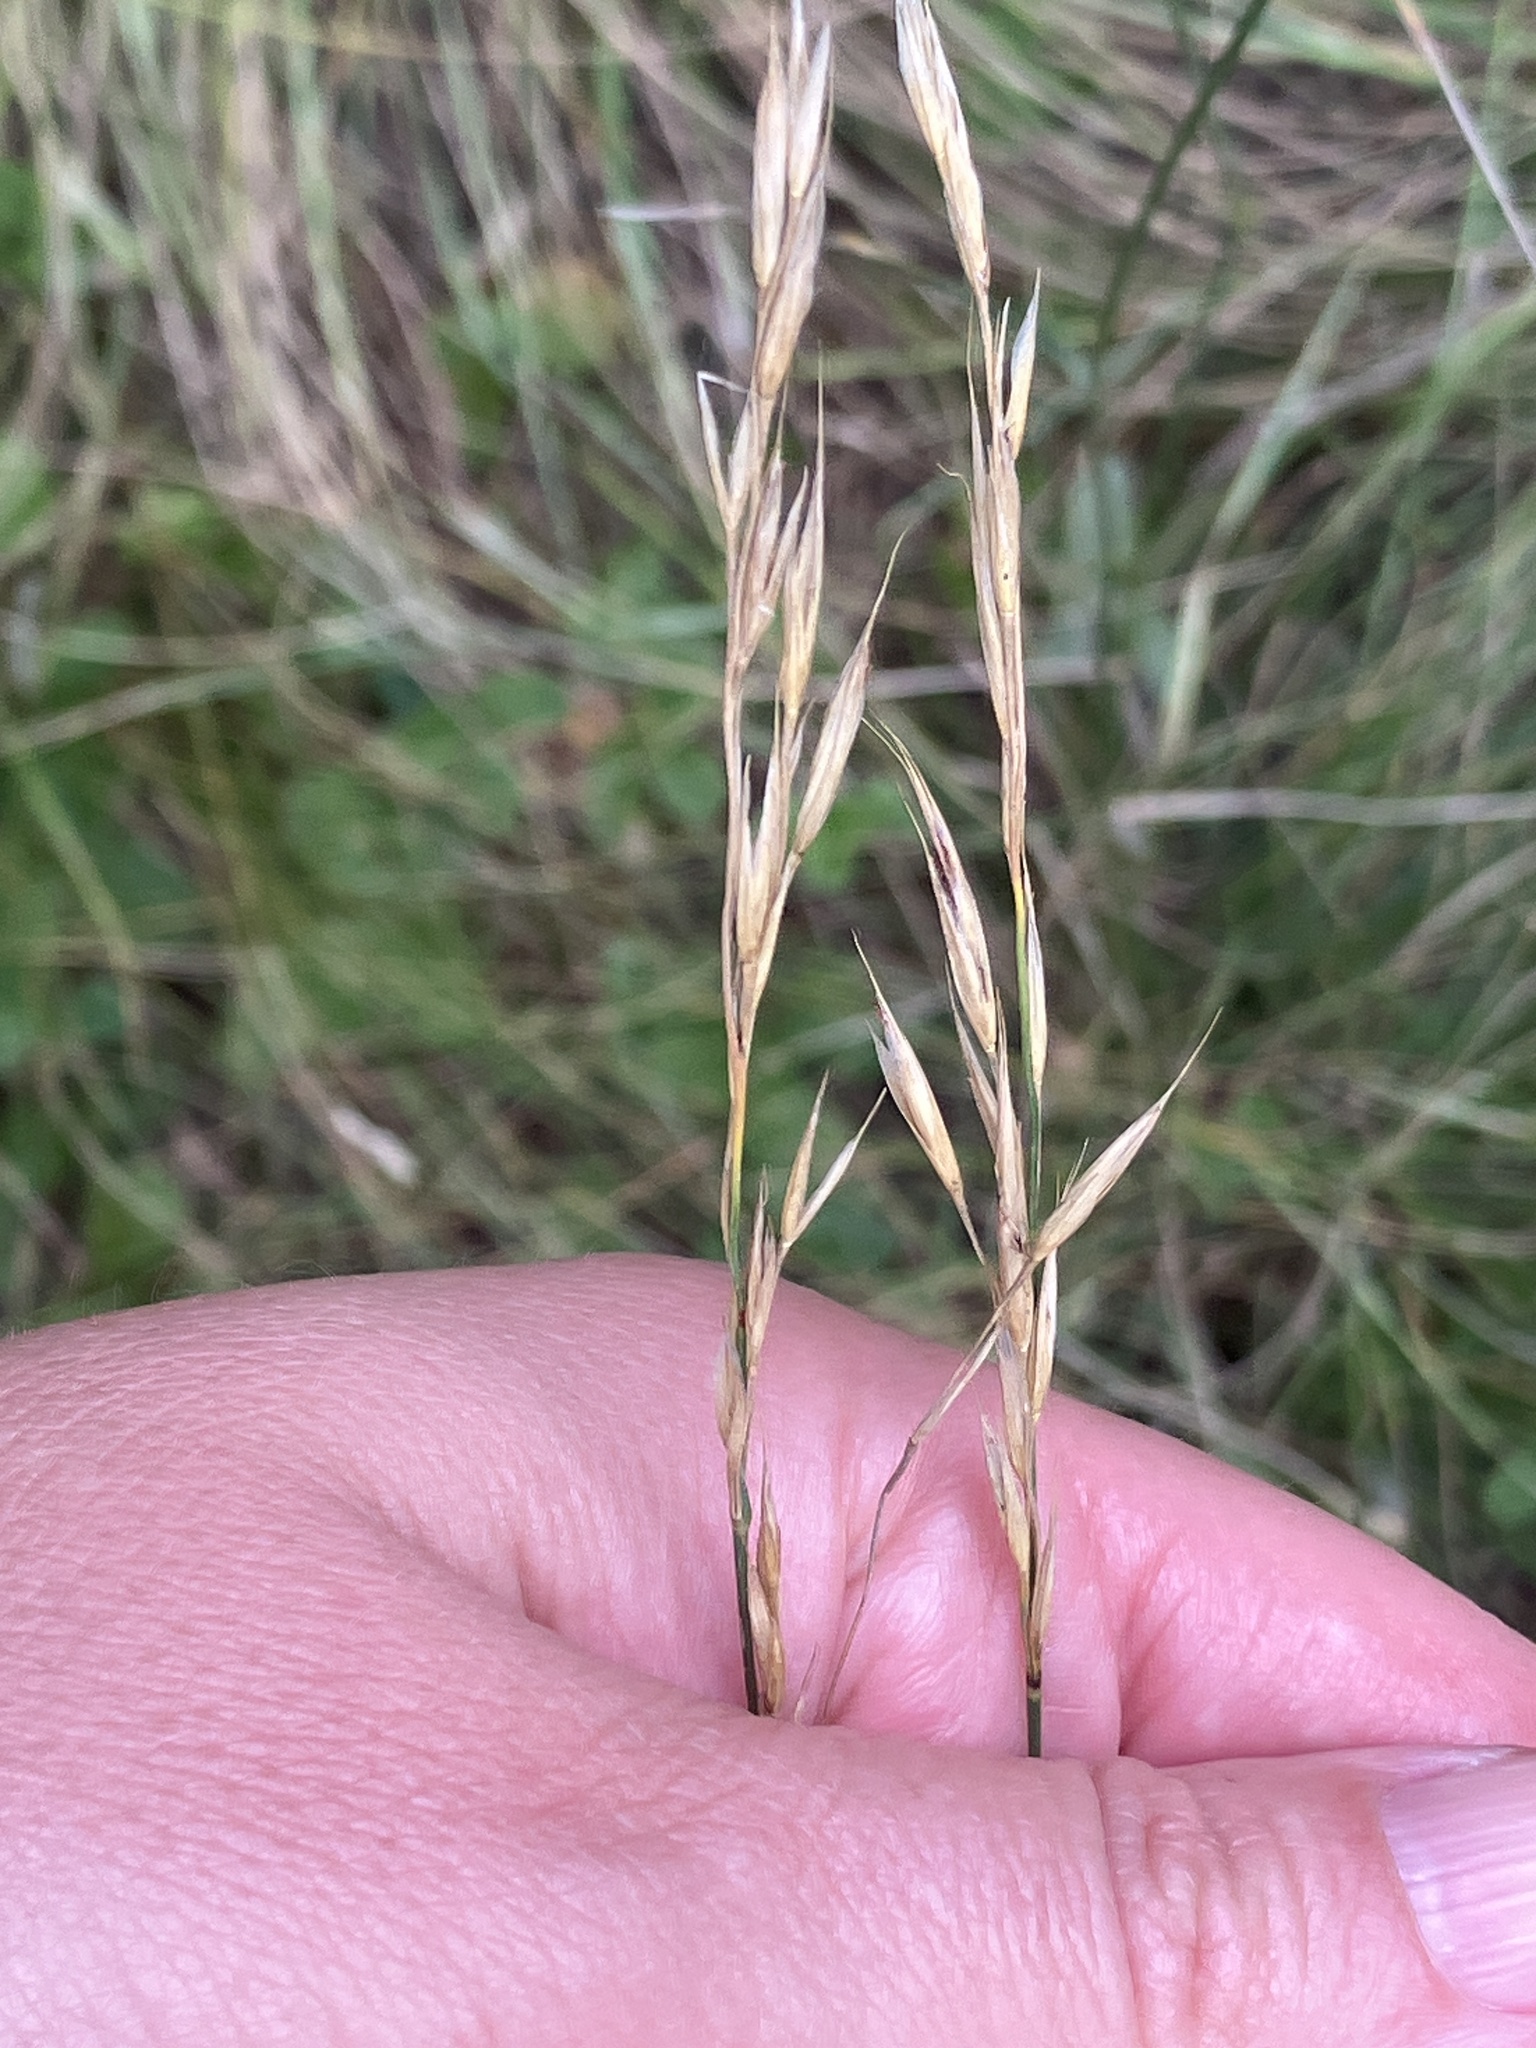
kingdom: Plantae
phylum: Tracheophyta
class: Liliopsida
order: Poales
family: Poaceae
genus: Bromus
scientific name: Bromus erectus
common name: Erect brome
